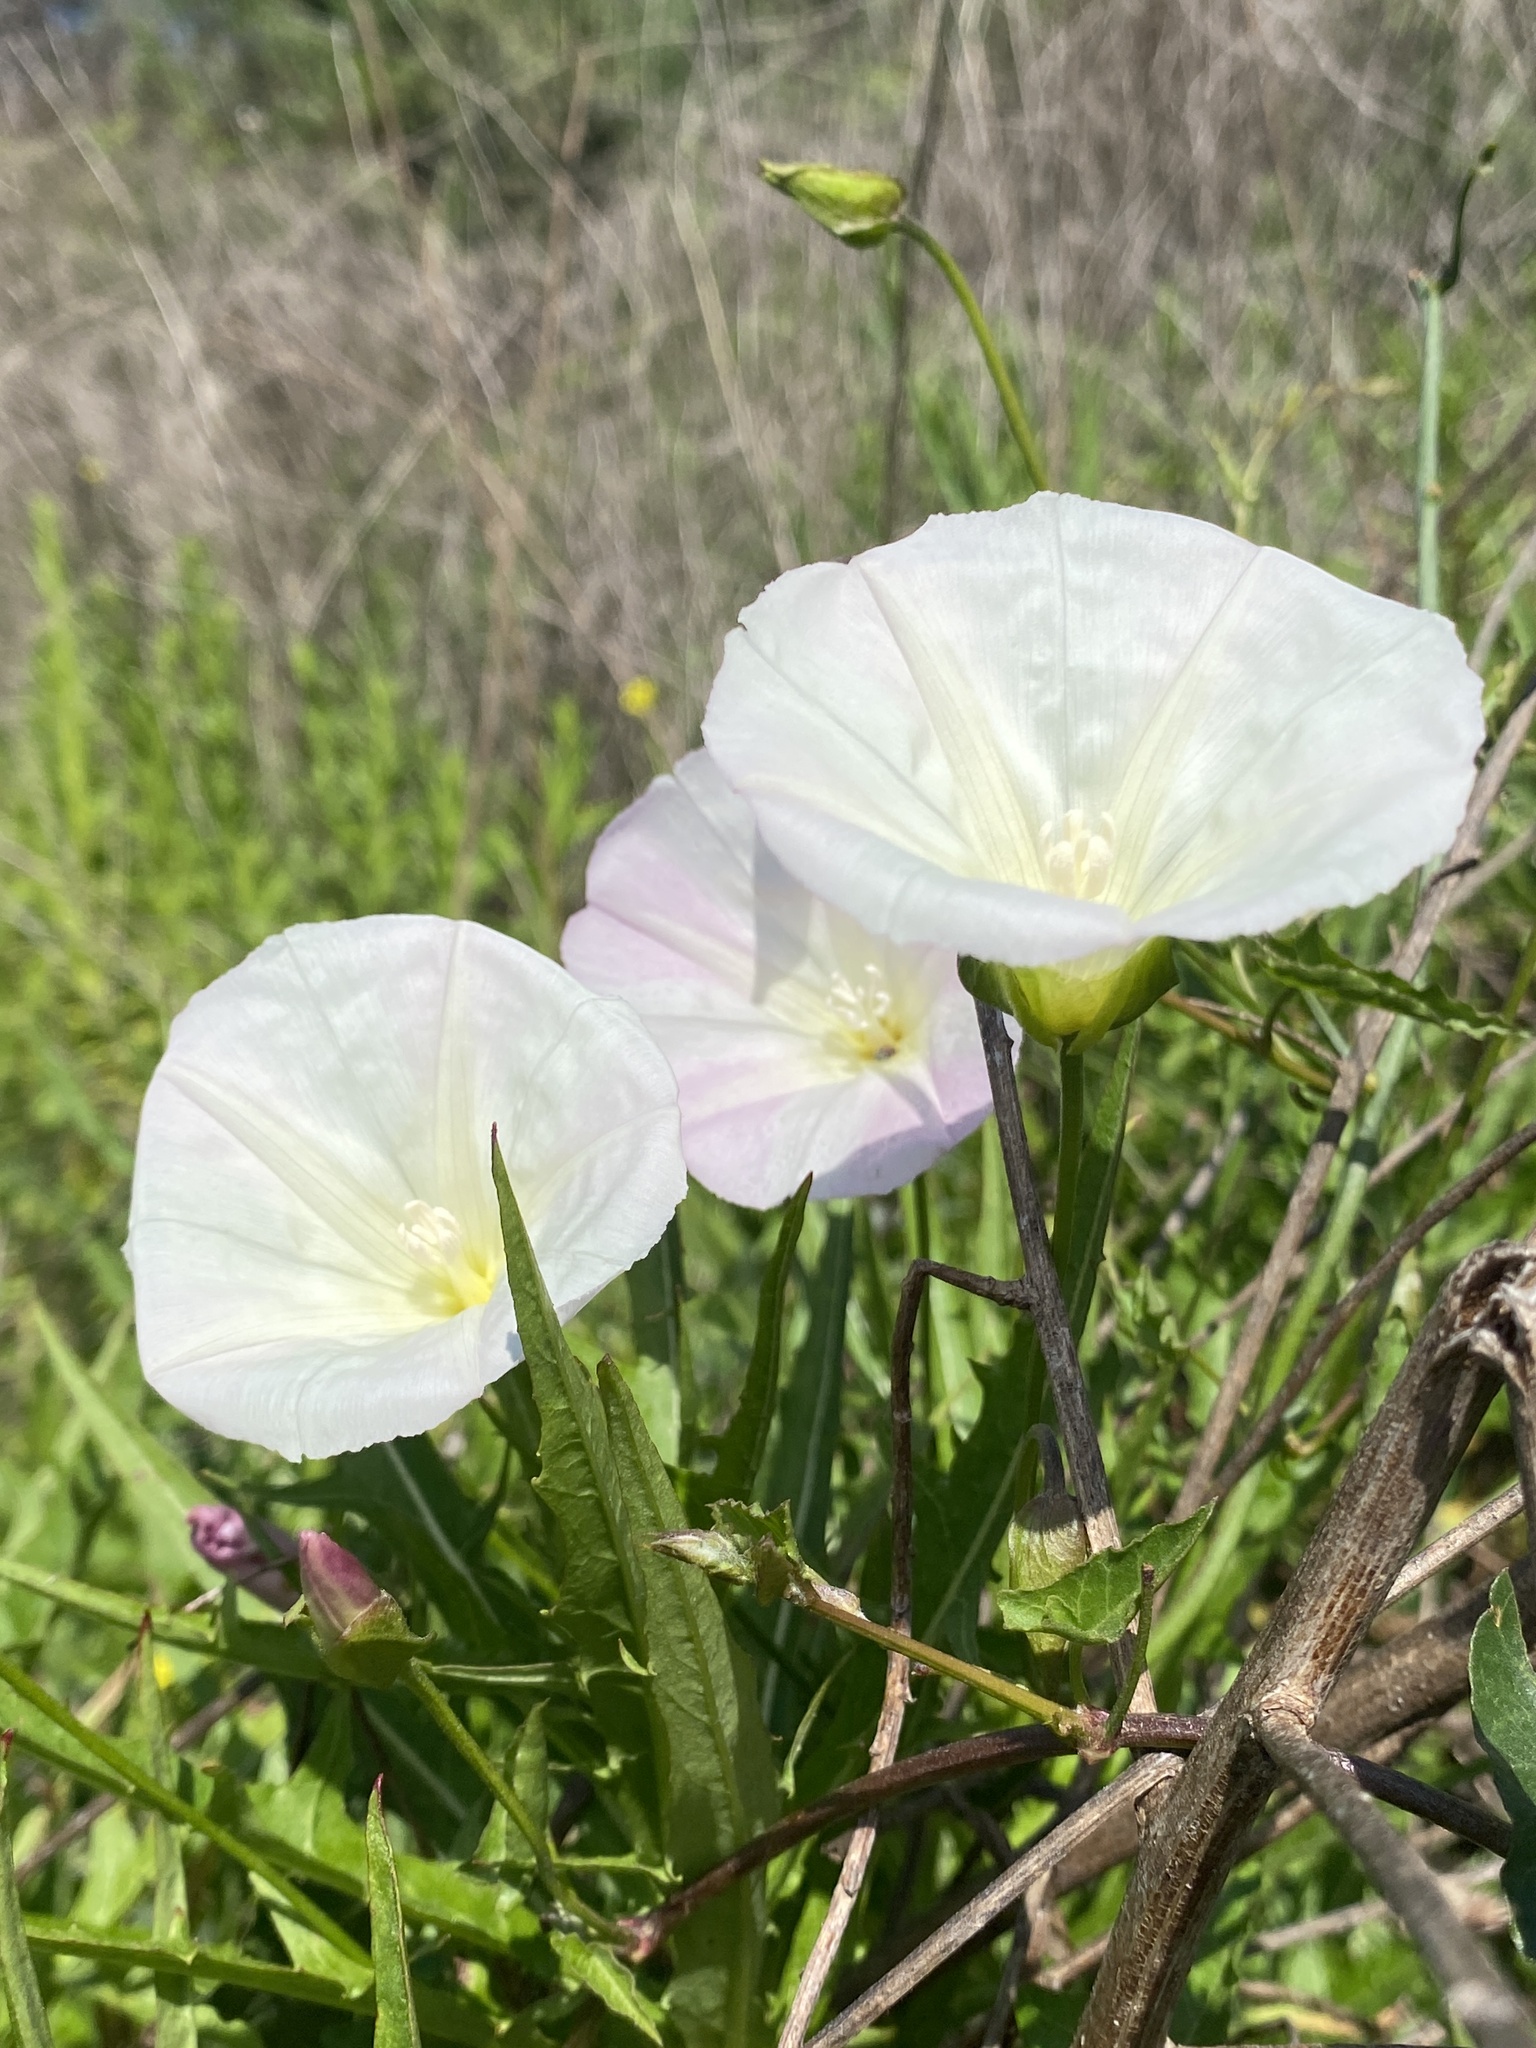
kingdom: Plantae
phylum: Tracheophyta
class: Magnoliopsida
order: Solanales
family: Convolvulaceae
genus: Calystegia
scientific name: Calystegia macrostegia
